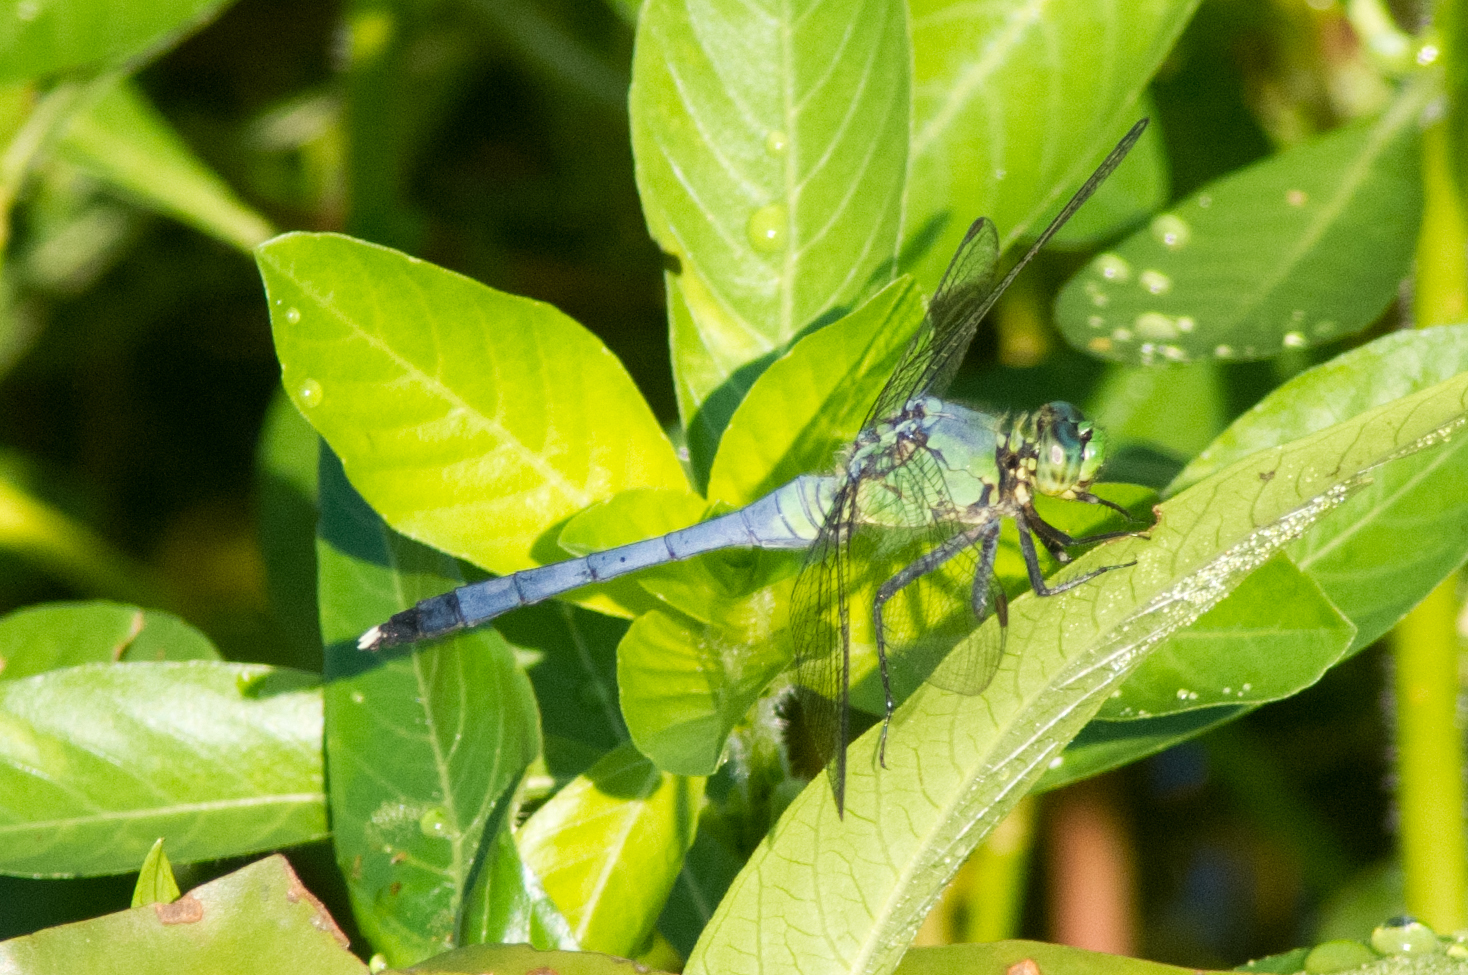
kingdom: Animalia
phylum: Arthropoda
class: Insecta
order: Odonata
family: Libellulidae
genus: Erythemis
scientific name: Erythemis simplicicollis
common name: Eastern pondhawk
